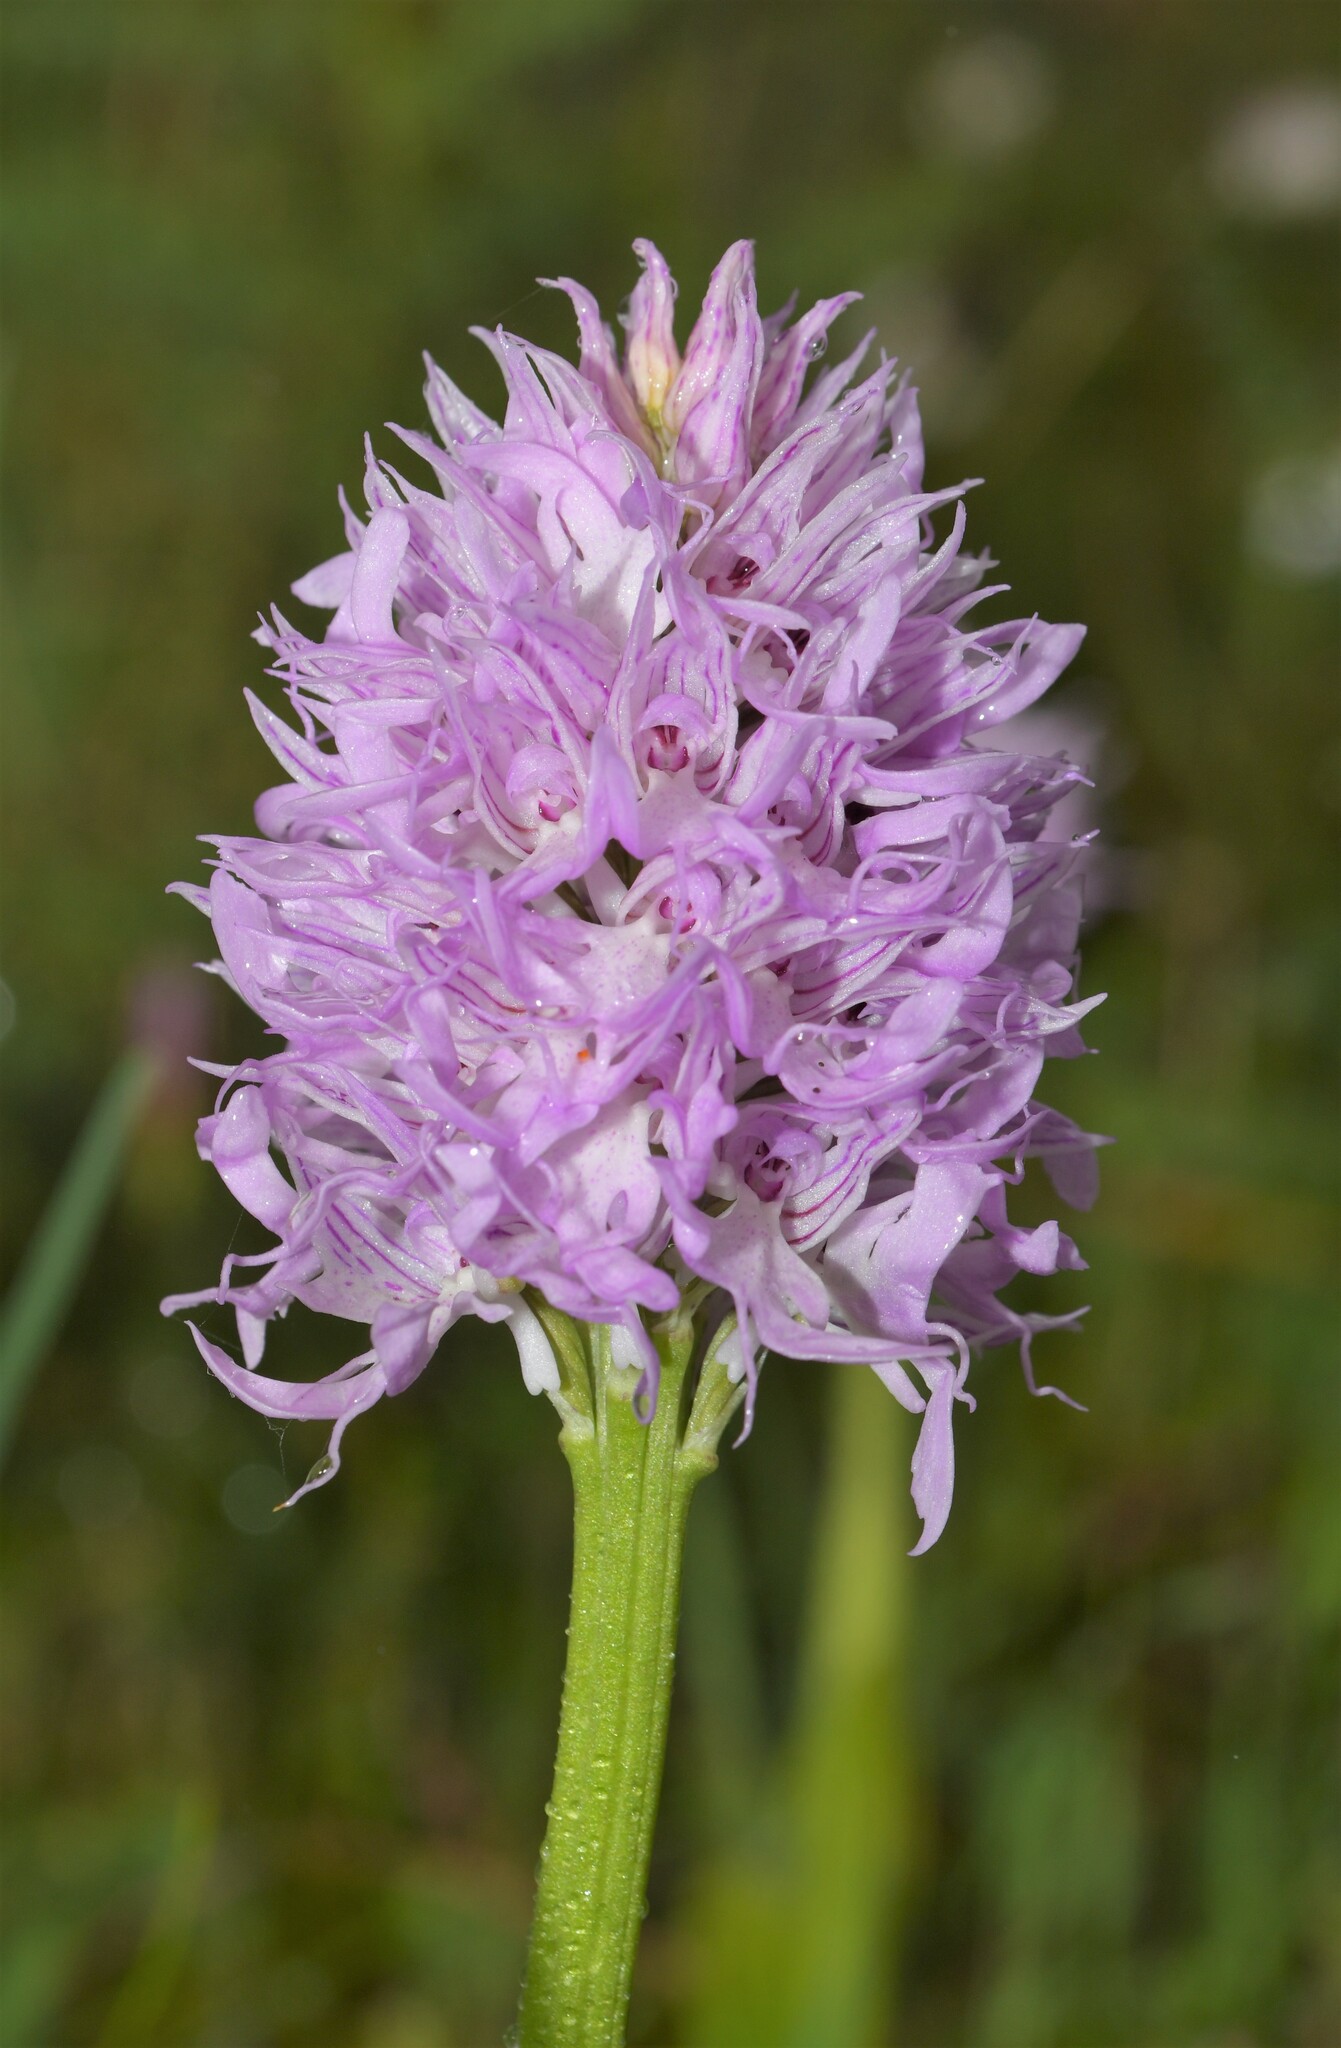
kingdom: Plantae
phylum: Tracheophyta
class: Liliopsida
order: Asparagales
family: Orchidaceae
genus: Orchis
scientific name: Orchis italica
